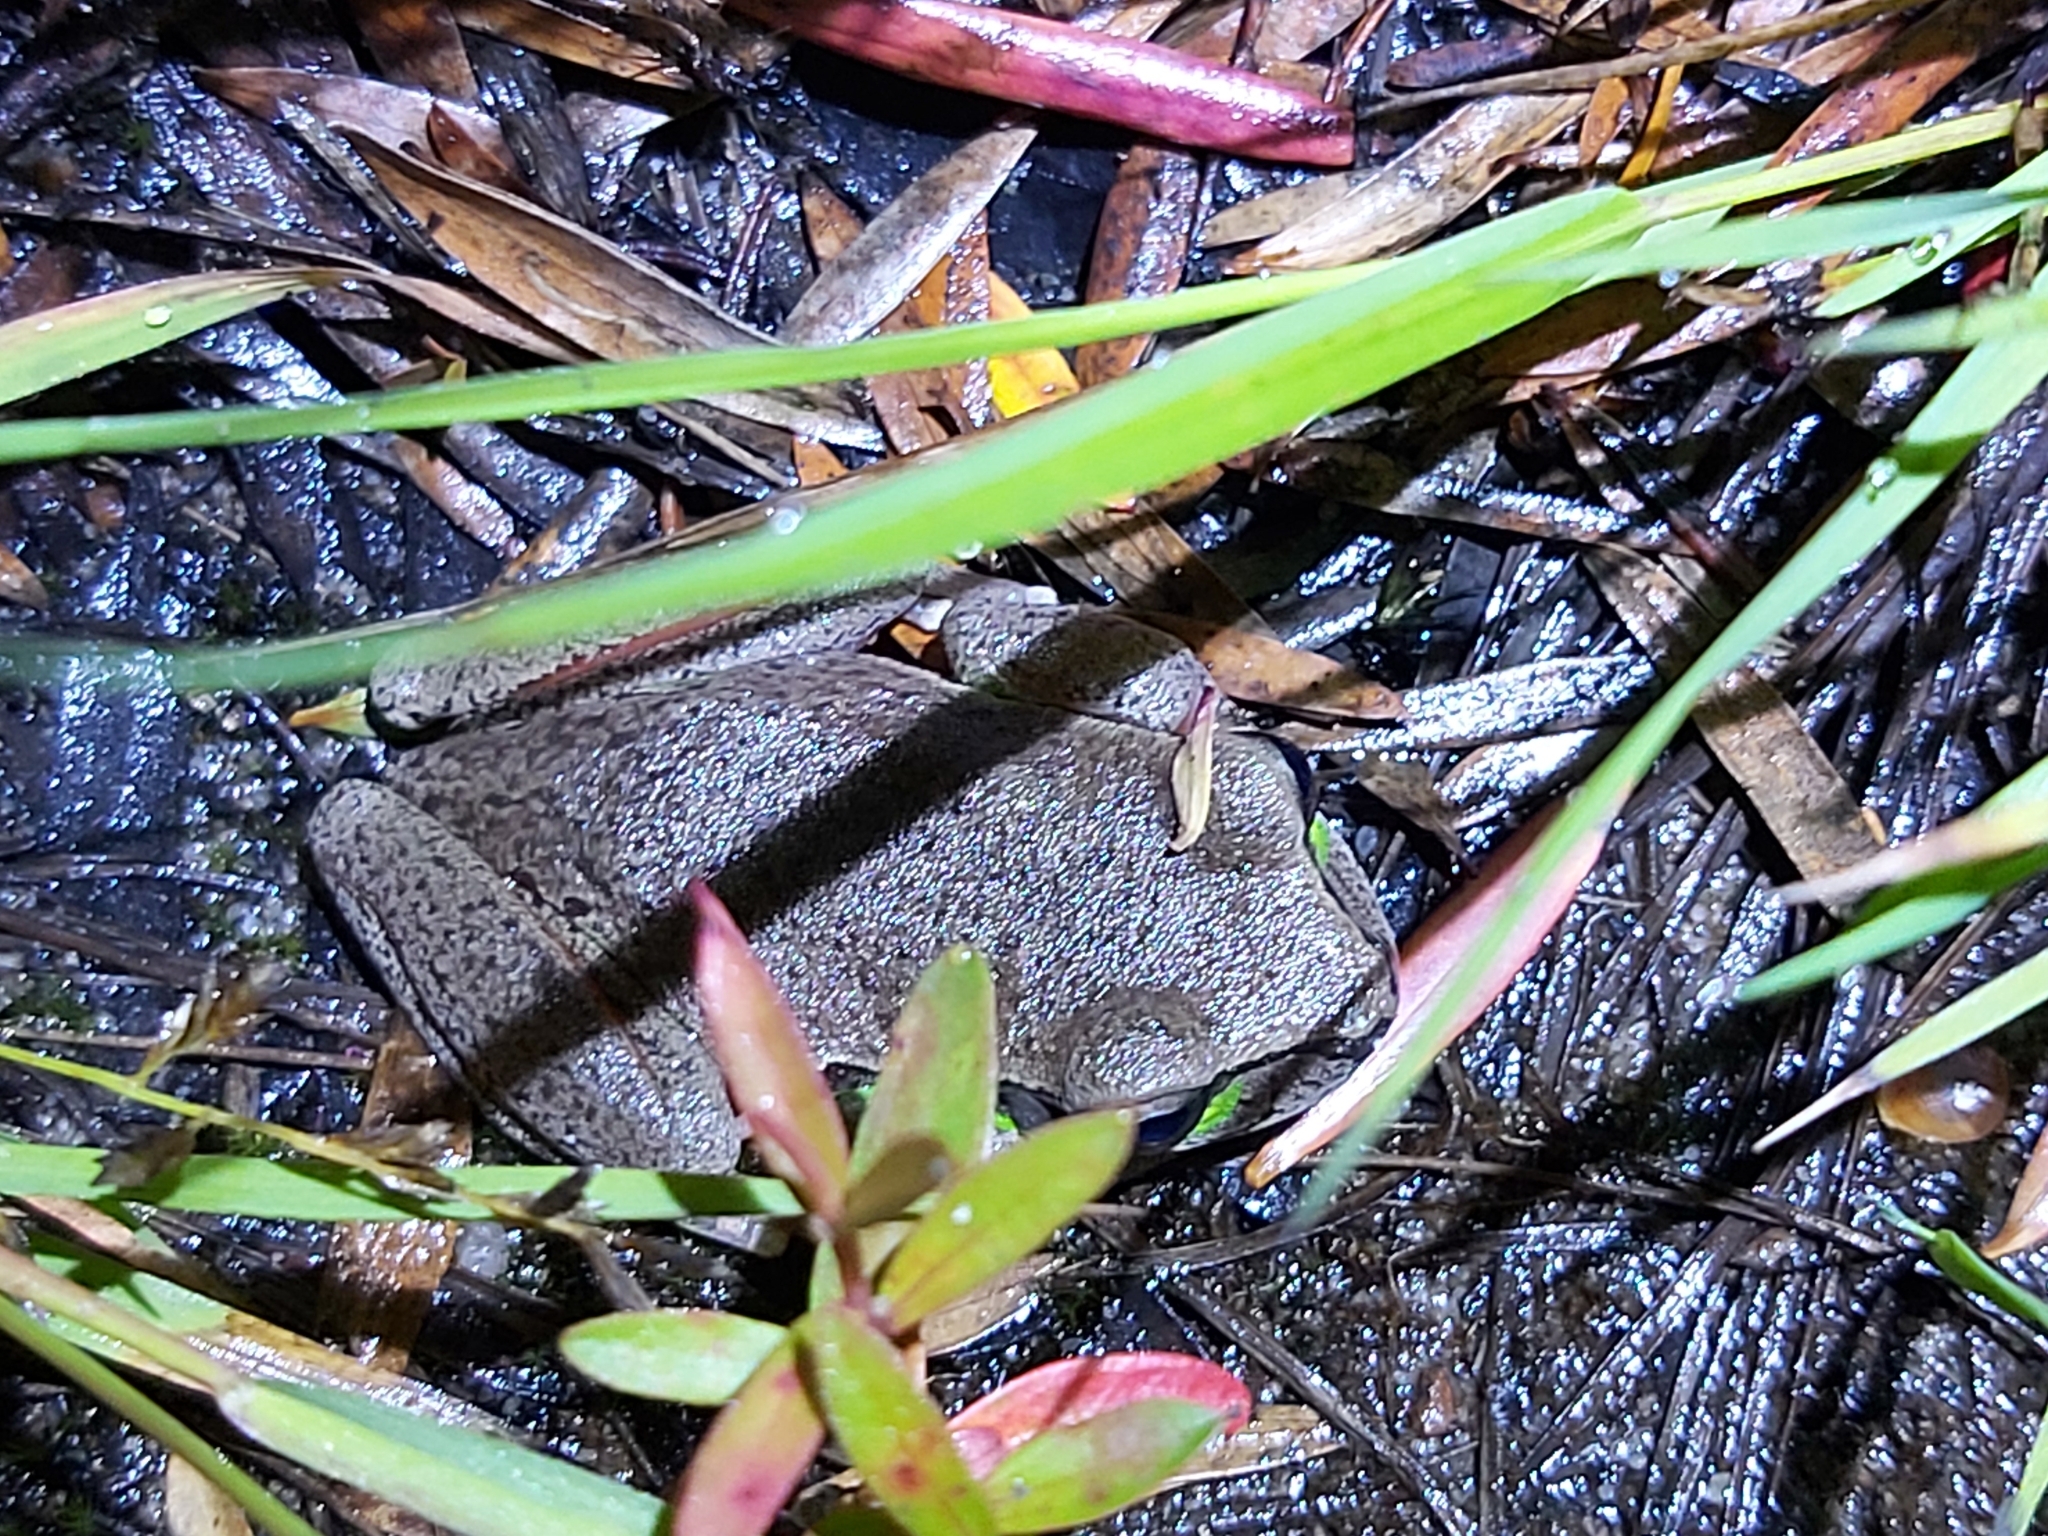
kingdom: Animalia
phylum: Chordata
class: Amphibia
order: Anura
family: Pelodryadidae
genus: Ranoidea
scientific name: Ranoidea citropa
